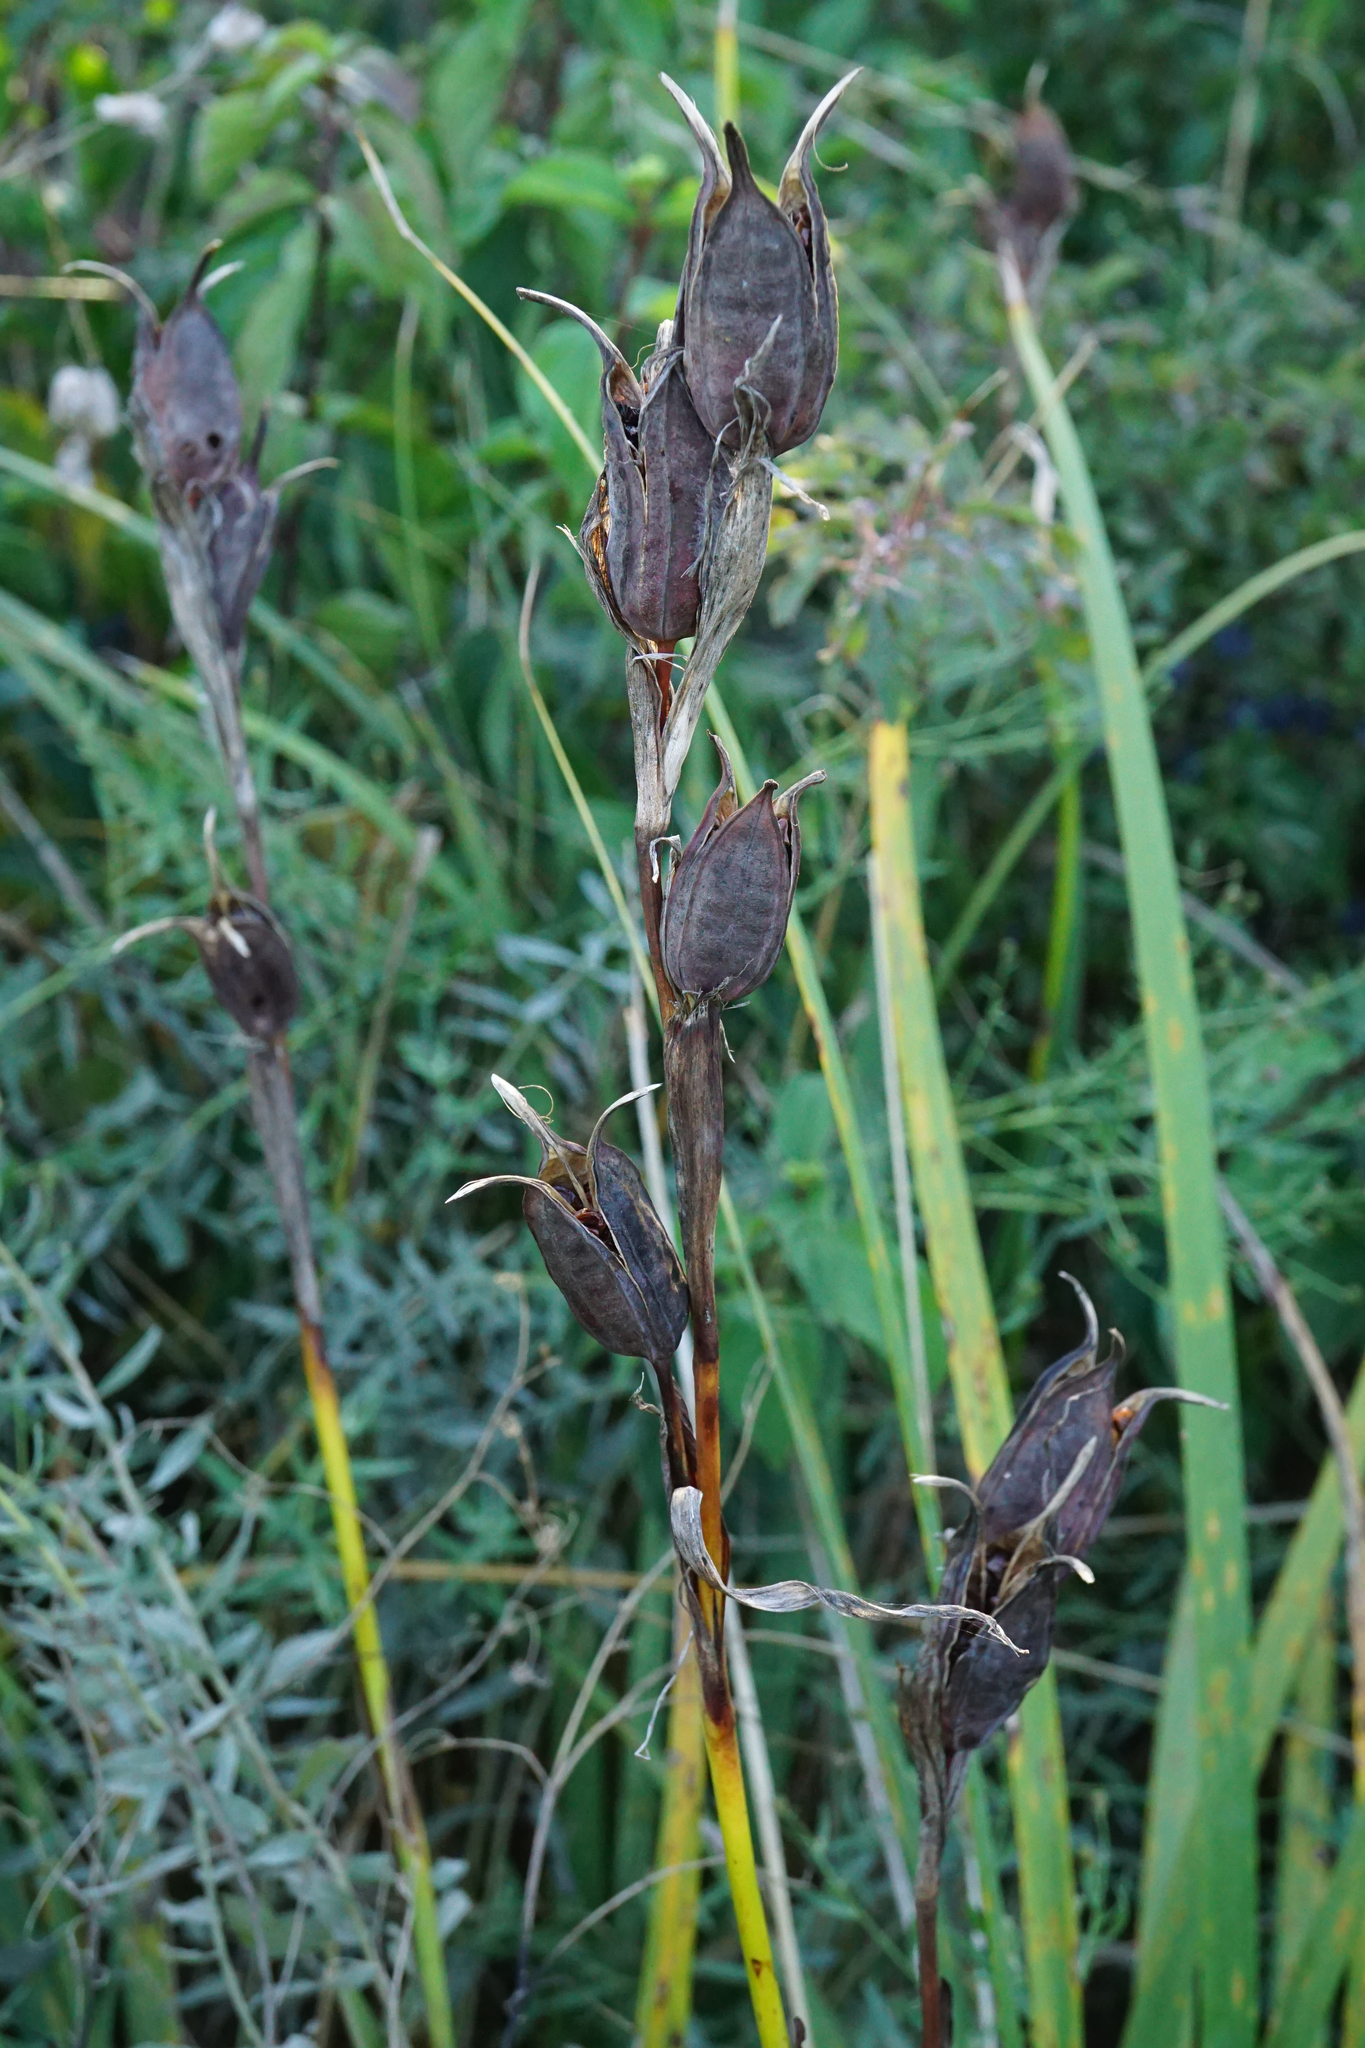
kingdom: Plantae
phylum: Tracheophyta
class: Liliopsida
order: Asparagales
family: Iridaceae
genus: Iris
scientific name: Iris spuria
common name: Blue iris
